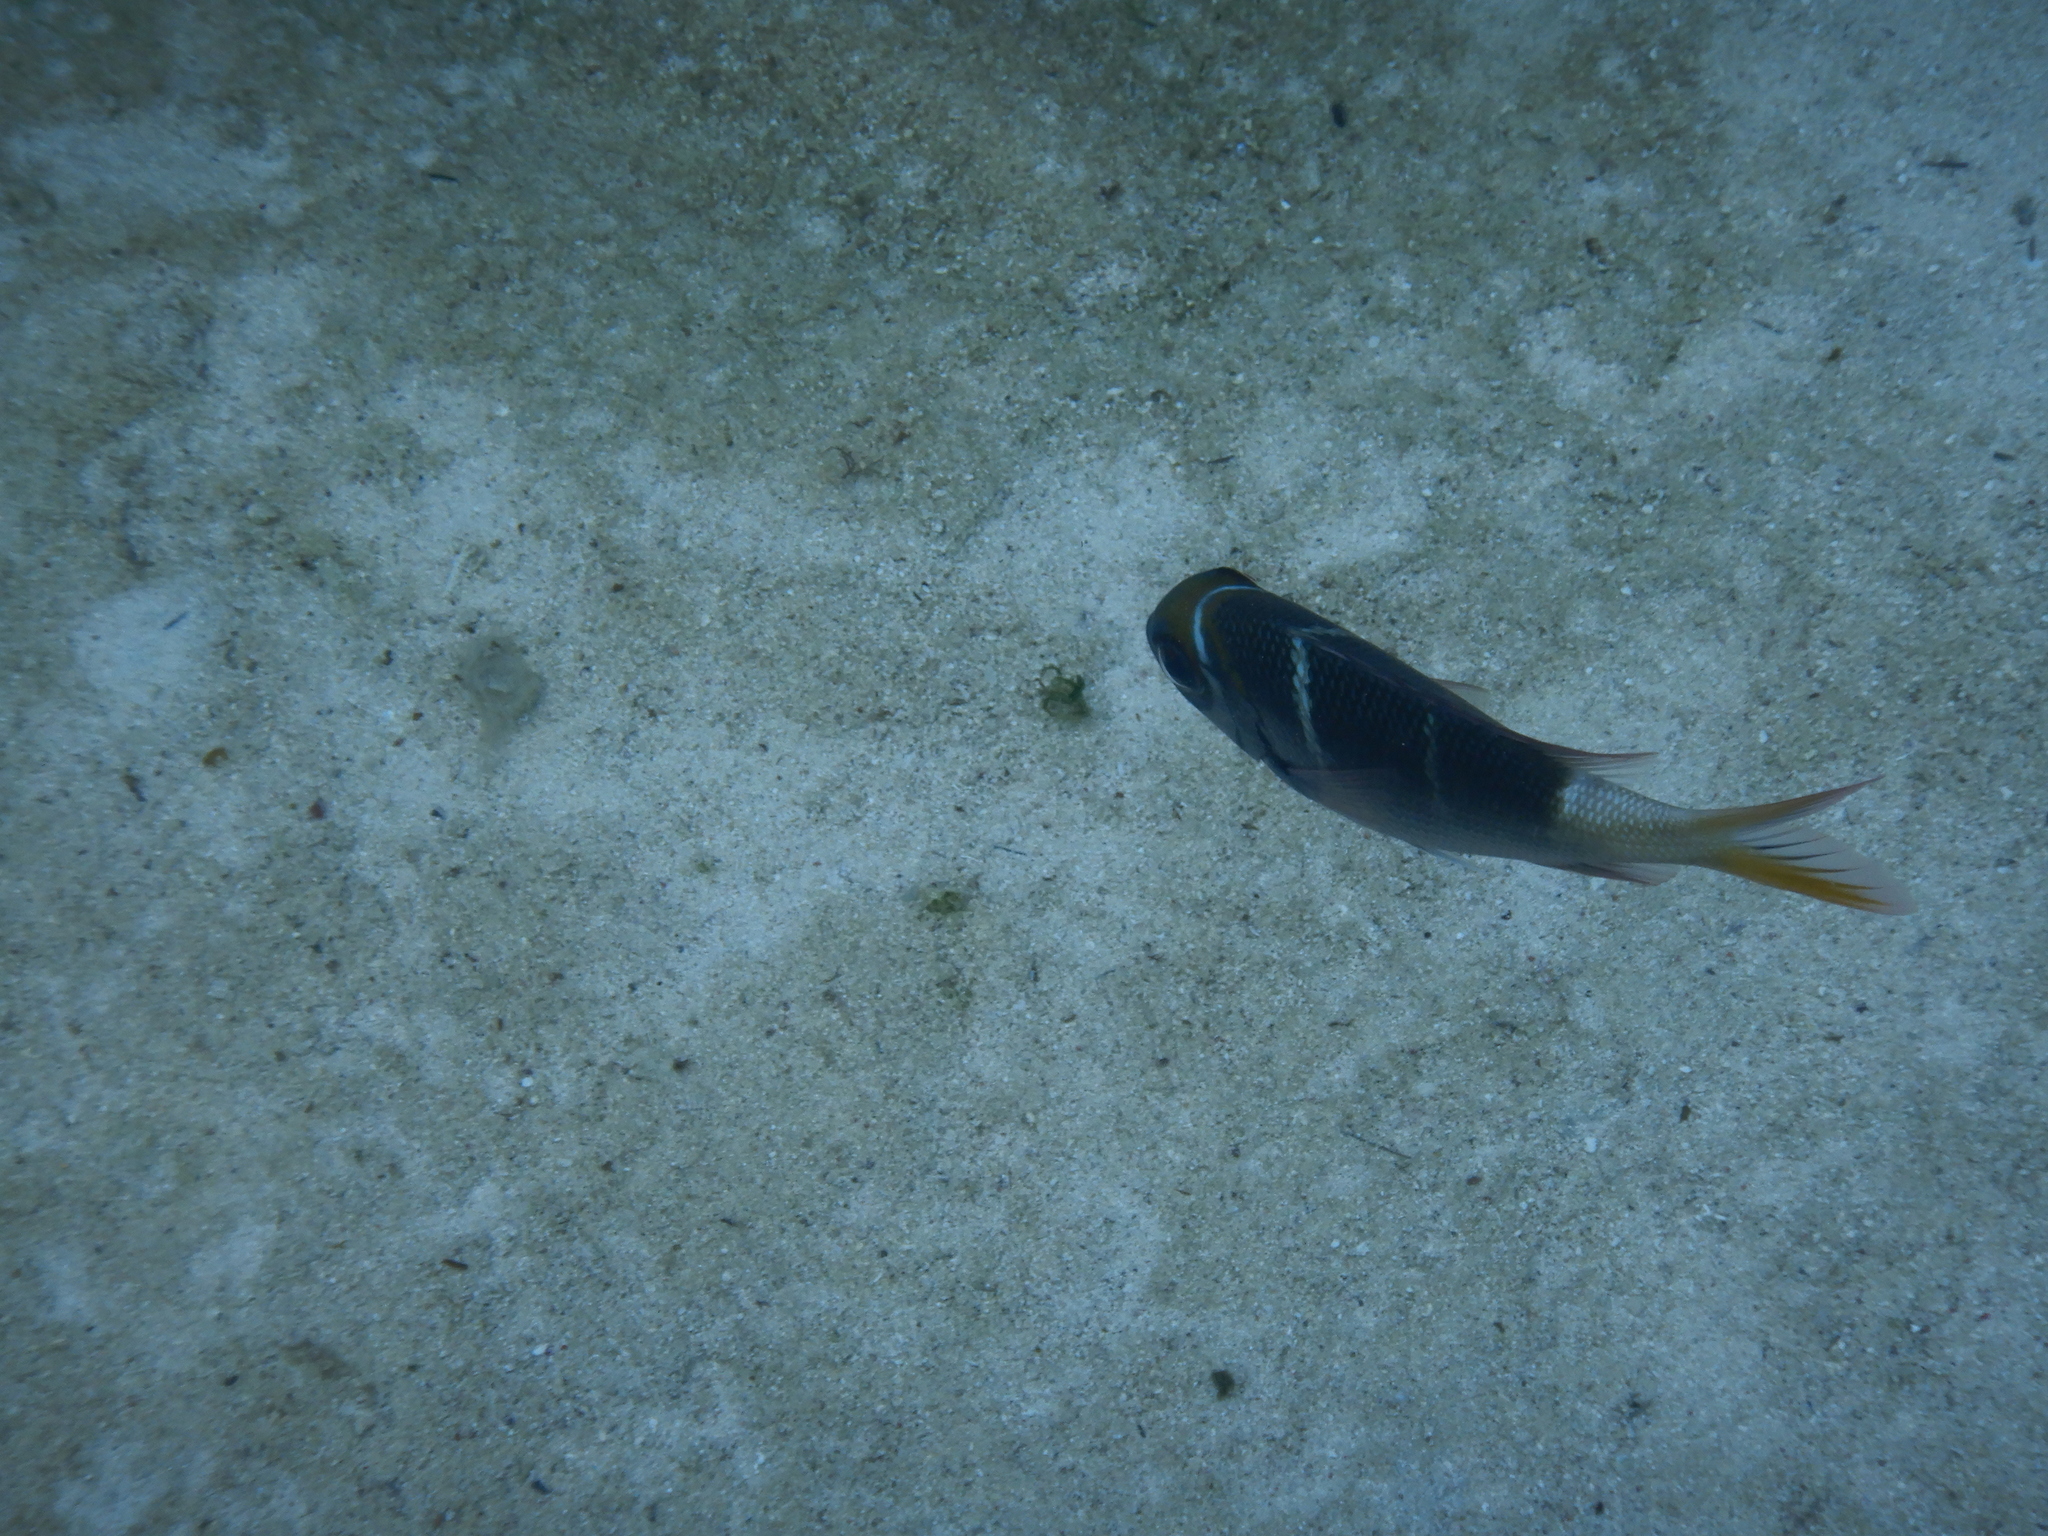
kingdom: Animalia
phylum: Chordata
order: Perciformes
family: Lethrinidae
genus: Monotaxis
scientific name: Monotaxis heterodon
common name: Redfin emperor
